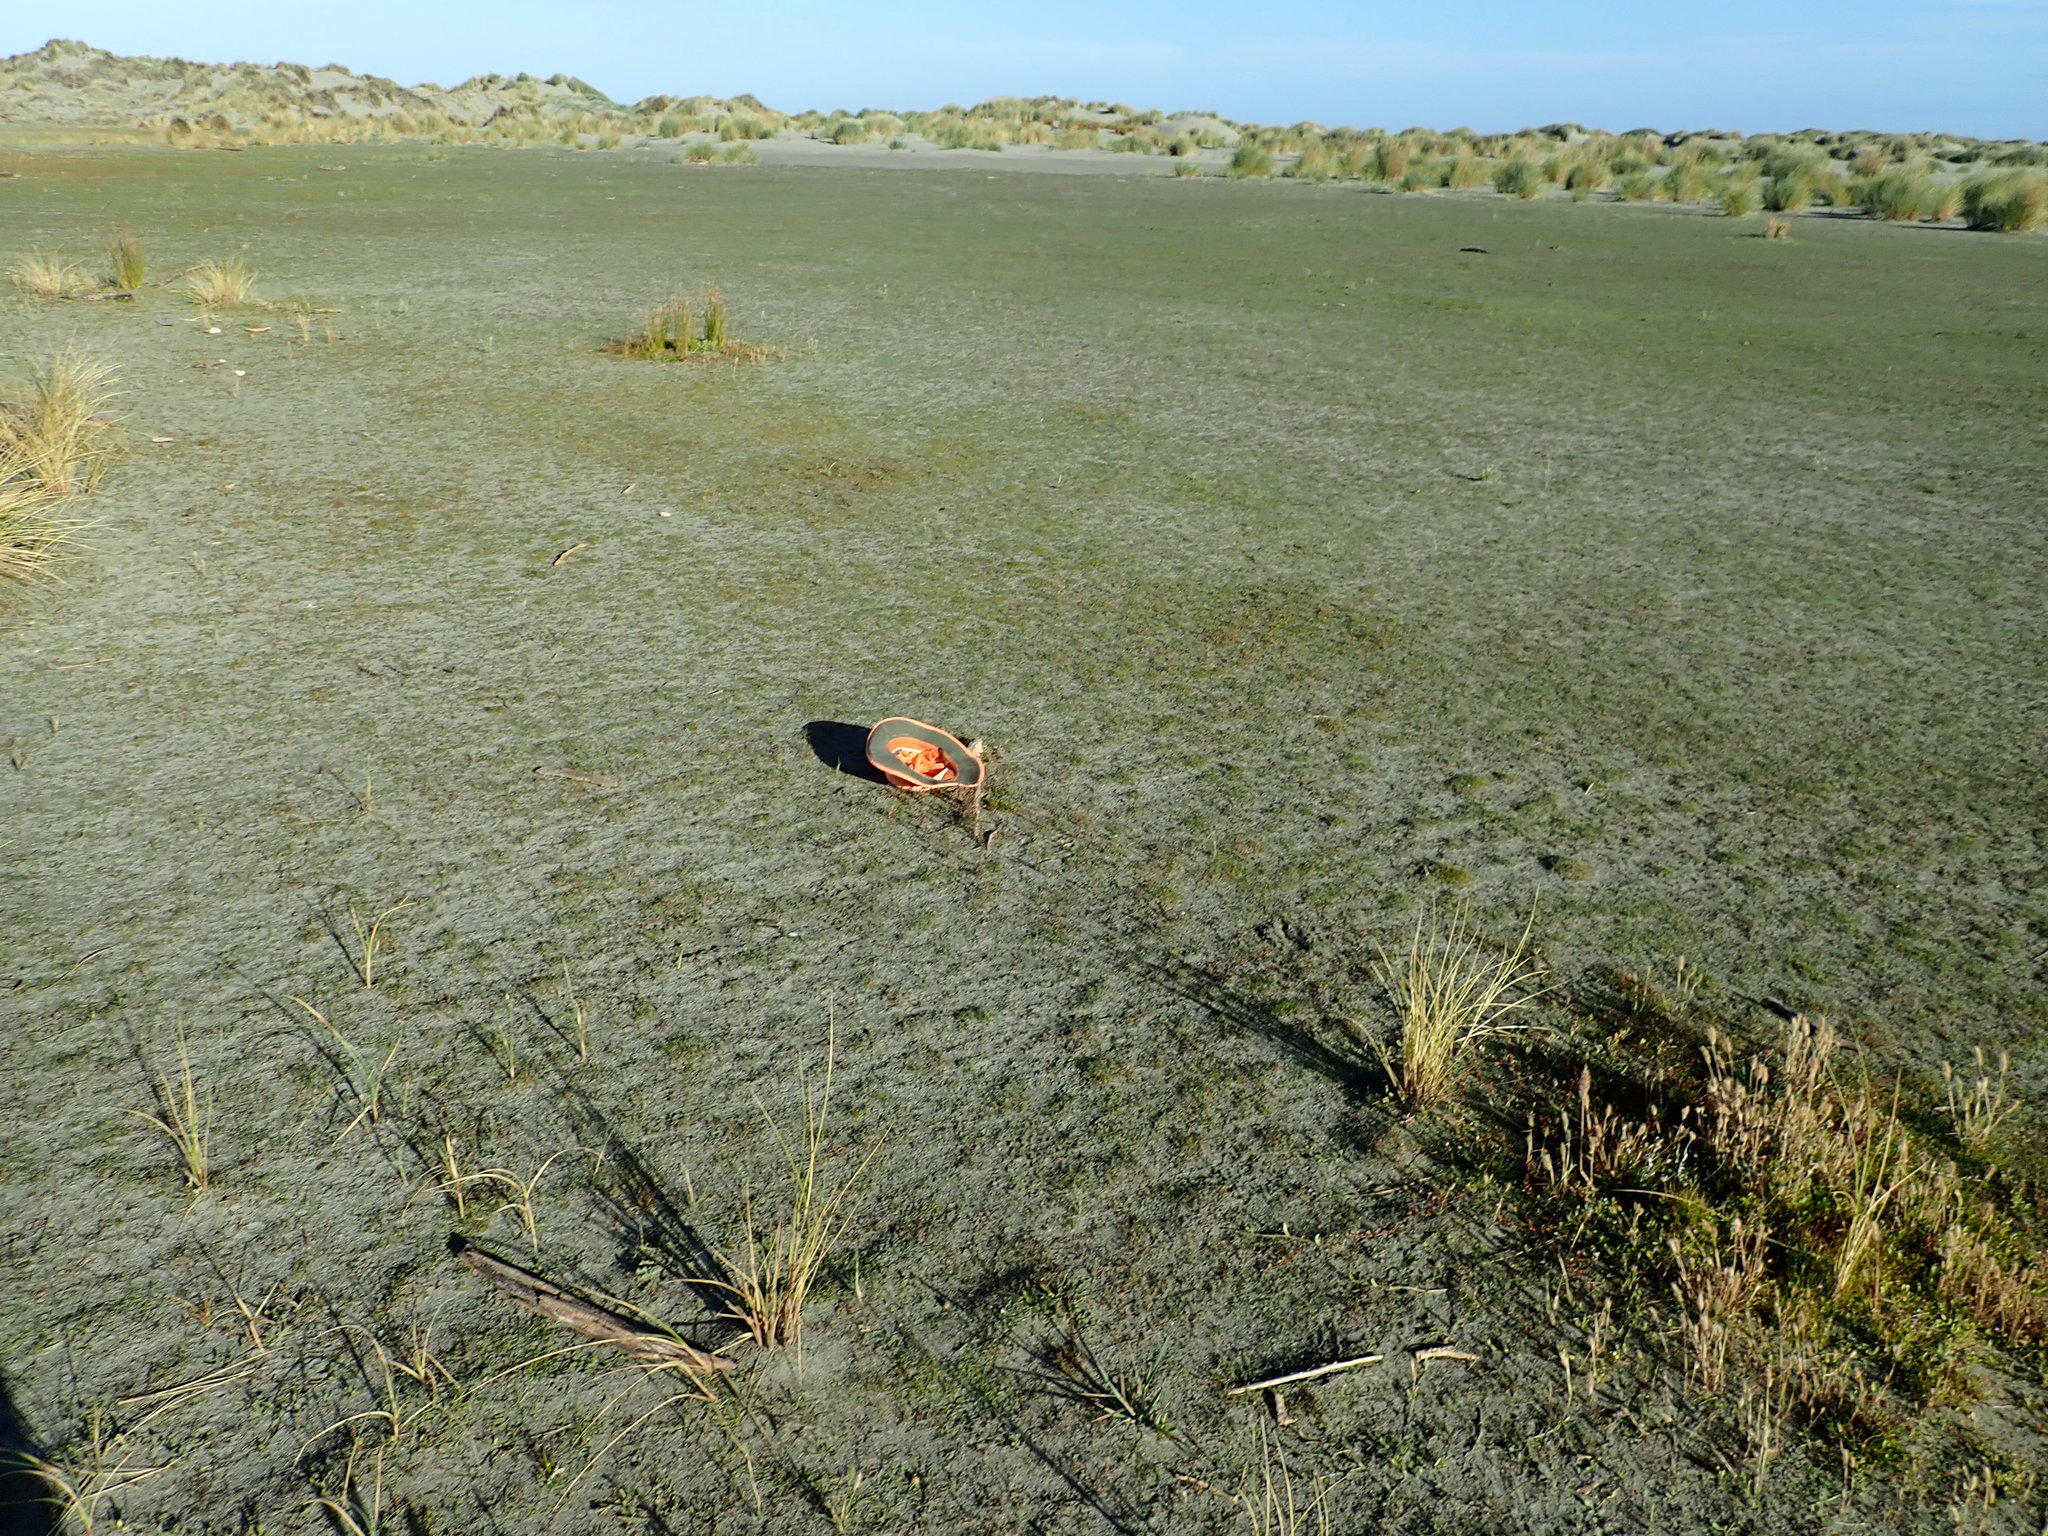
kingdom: Plantae
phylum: Tracheophyta
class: Magnoliopsida
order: Caryophyllales
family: Amaranthaceae
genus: Oxybasis
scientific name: Oxybasis ambigua
